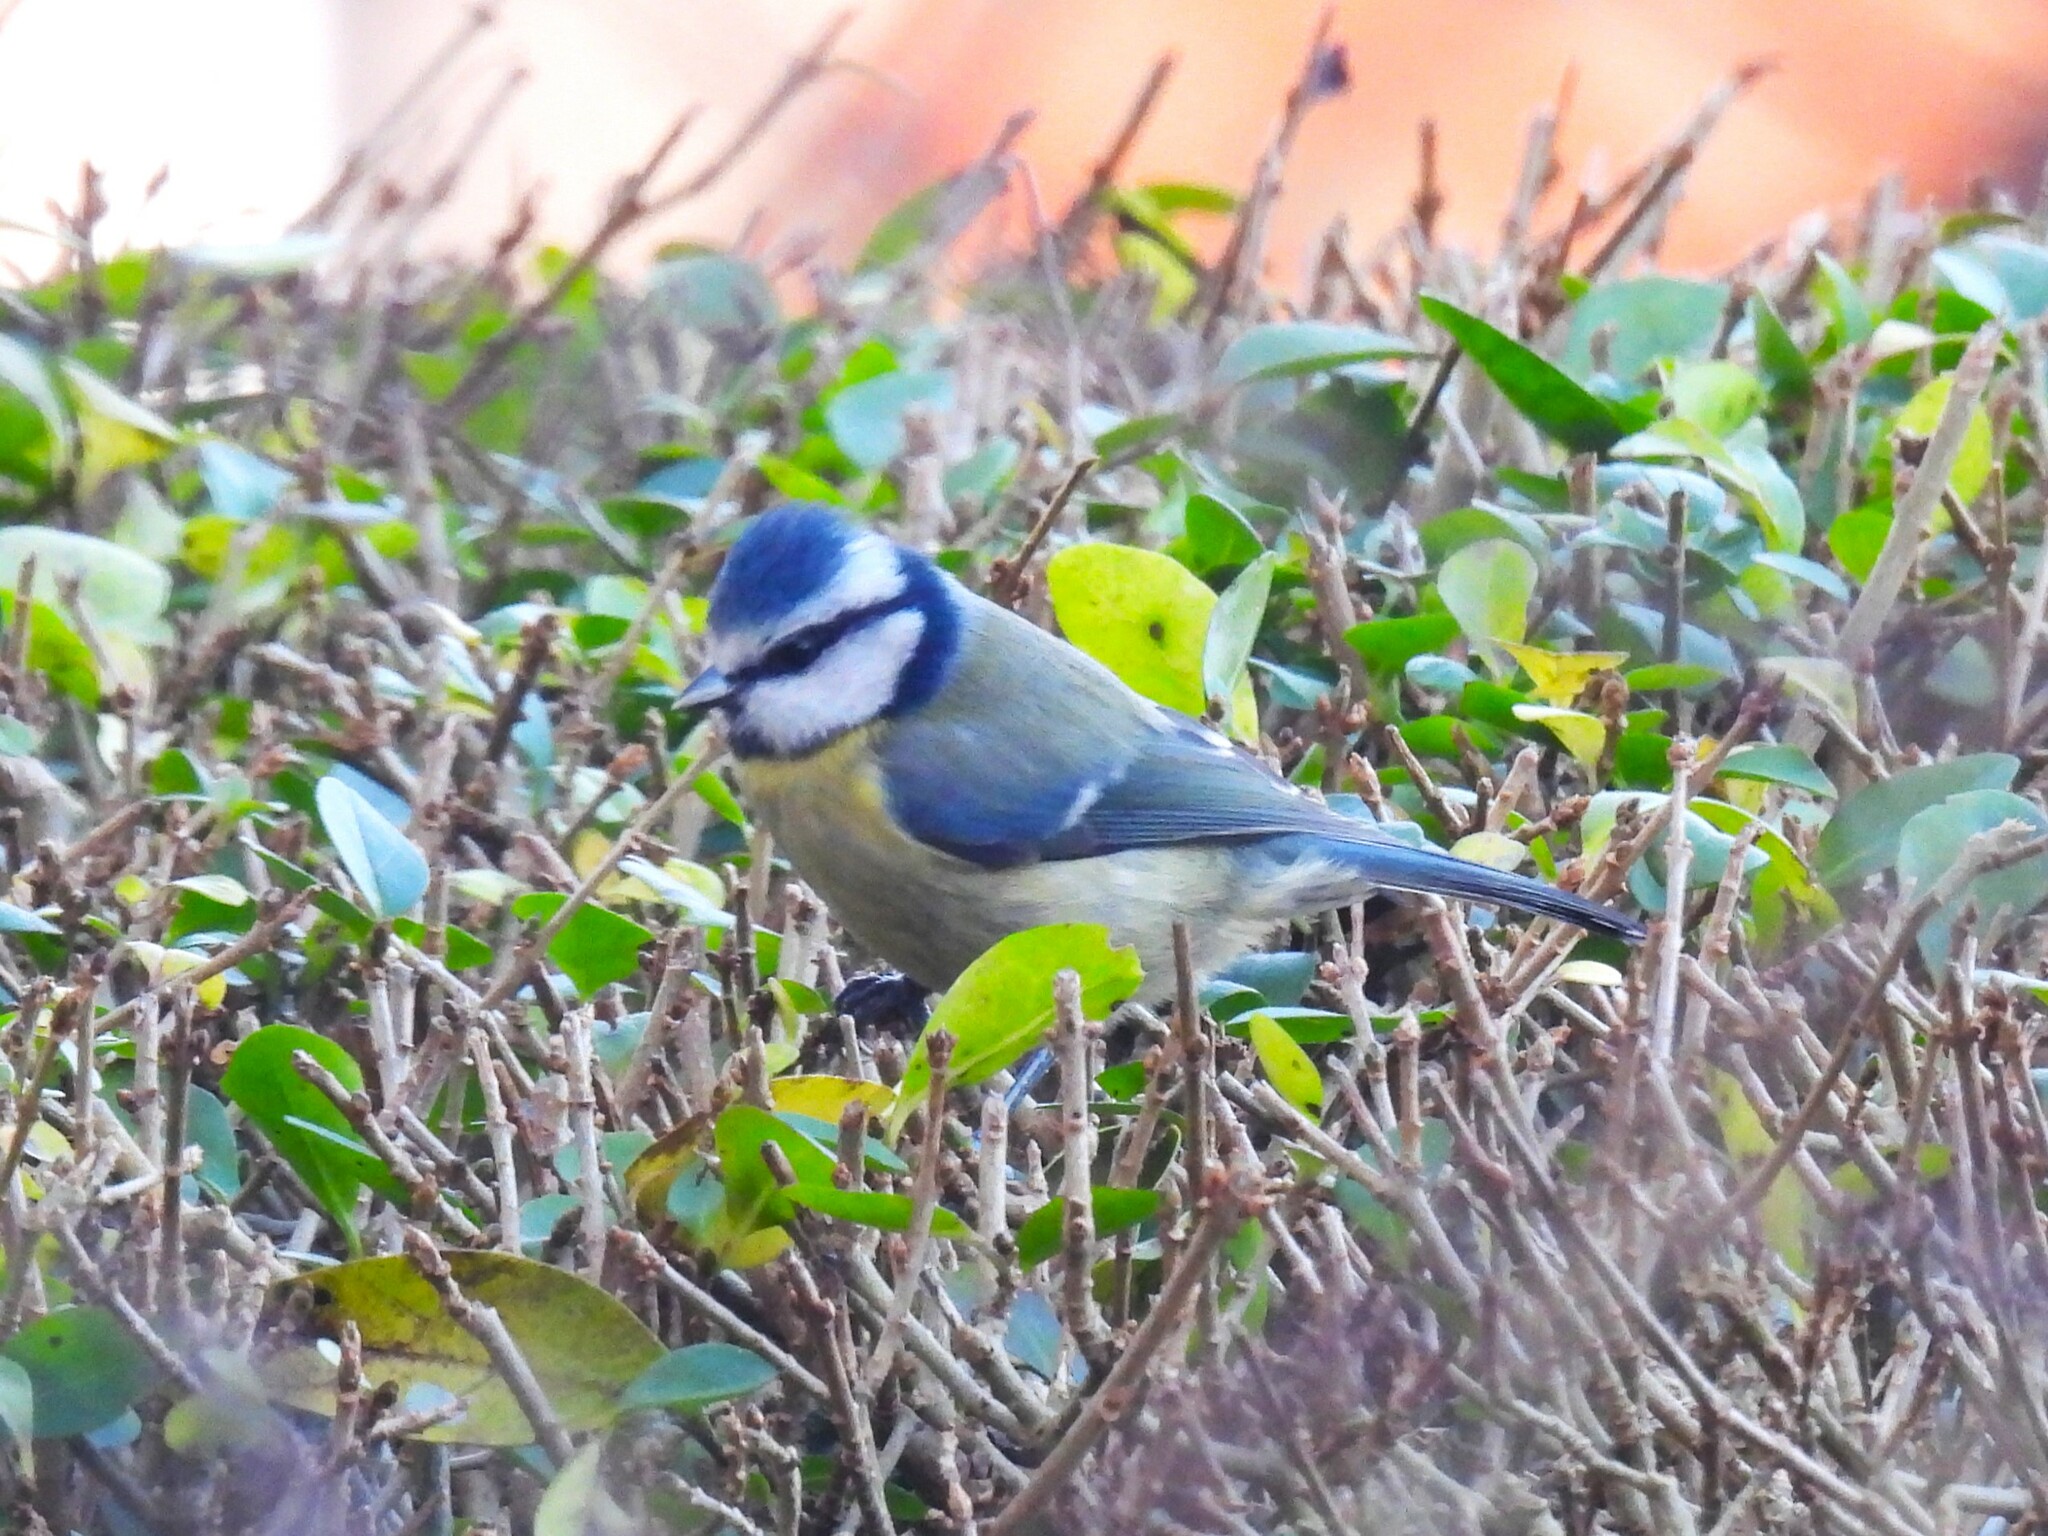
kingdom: Animalia
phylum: Chordata
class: Aves
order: Passeriformes
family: Paridae
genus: Cyanistes
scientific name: Cyanistes caeruleus
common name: Eurasian blue tit
